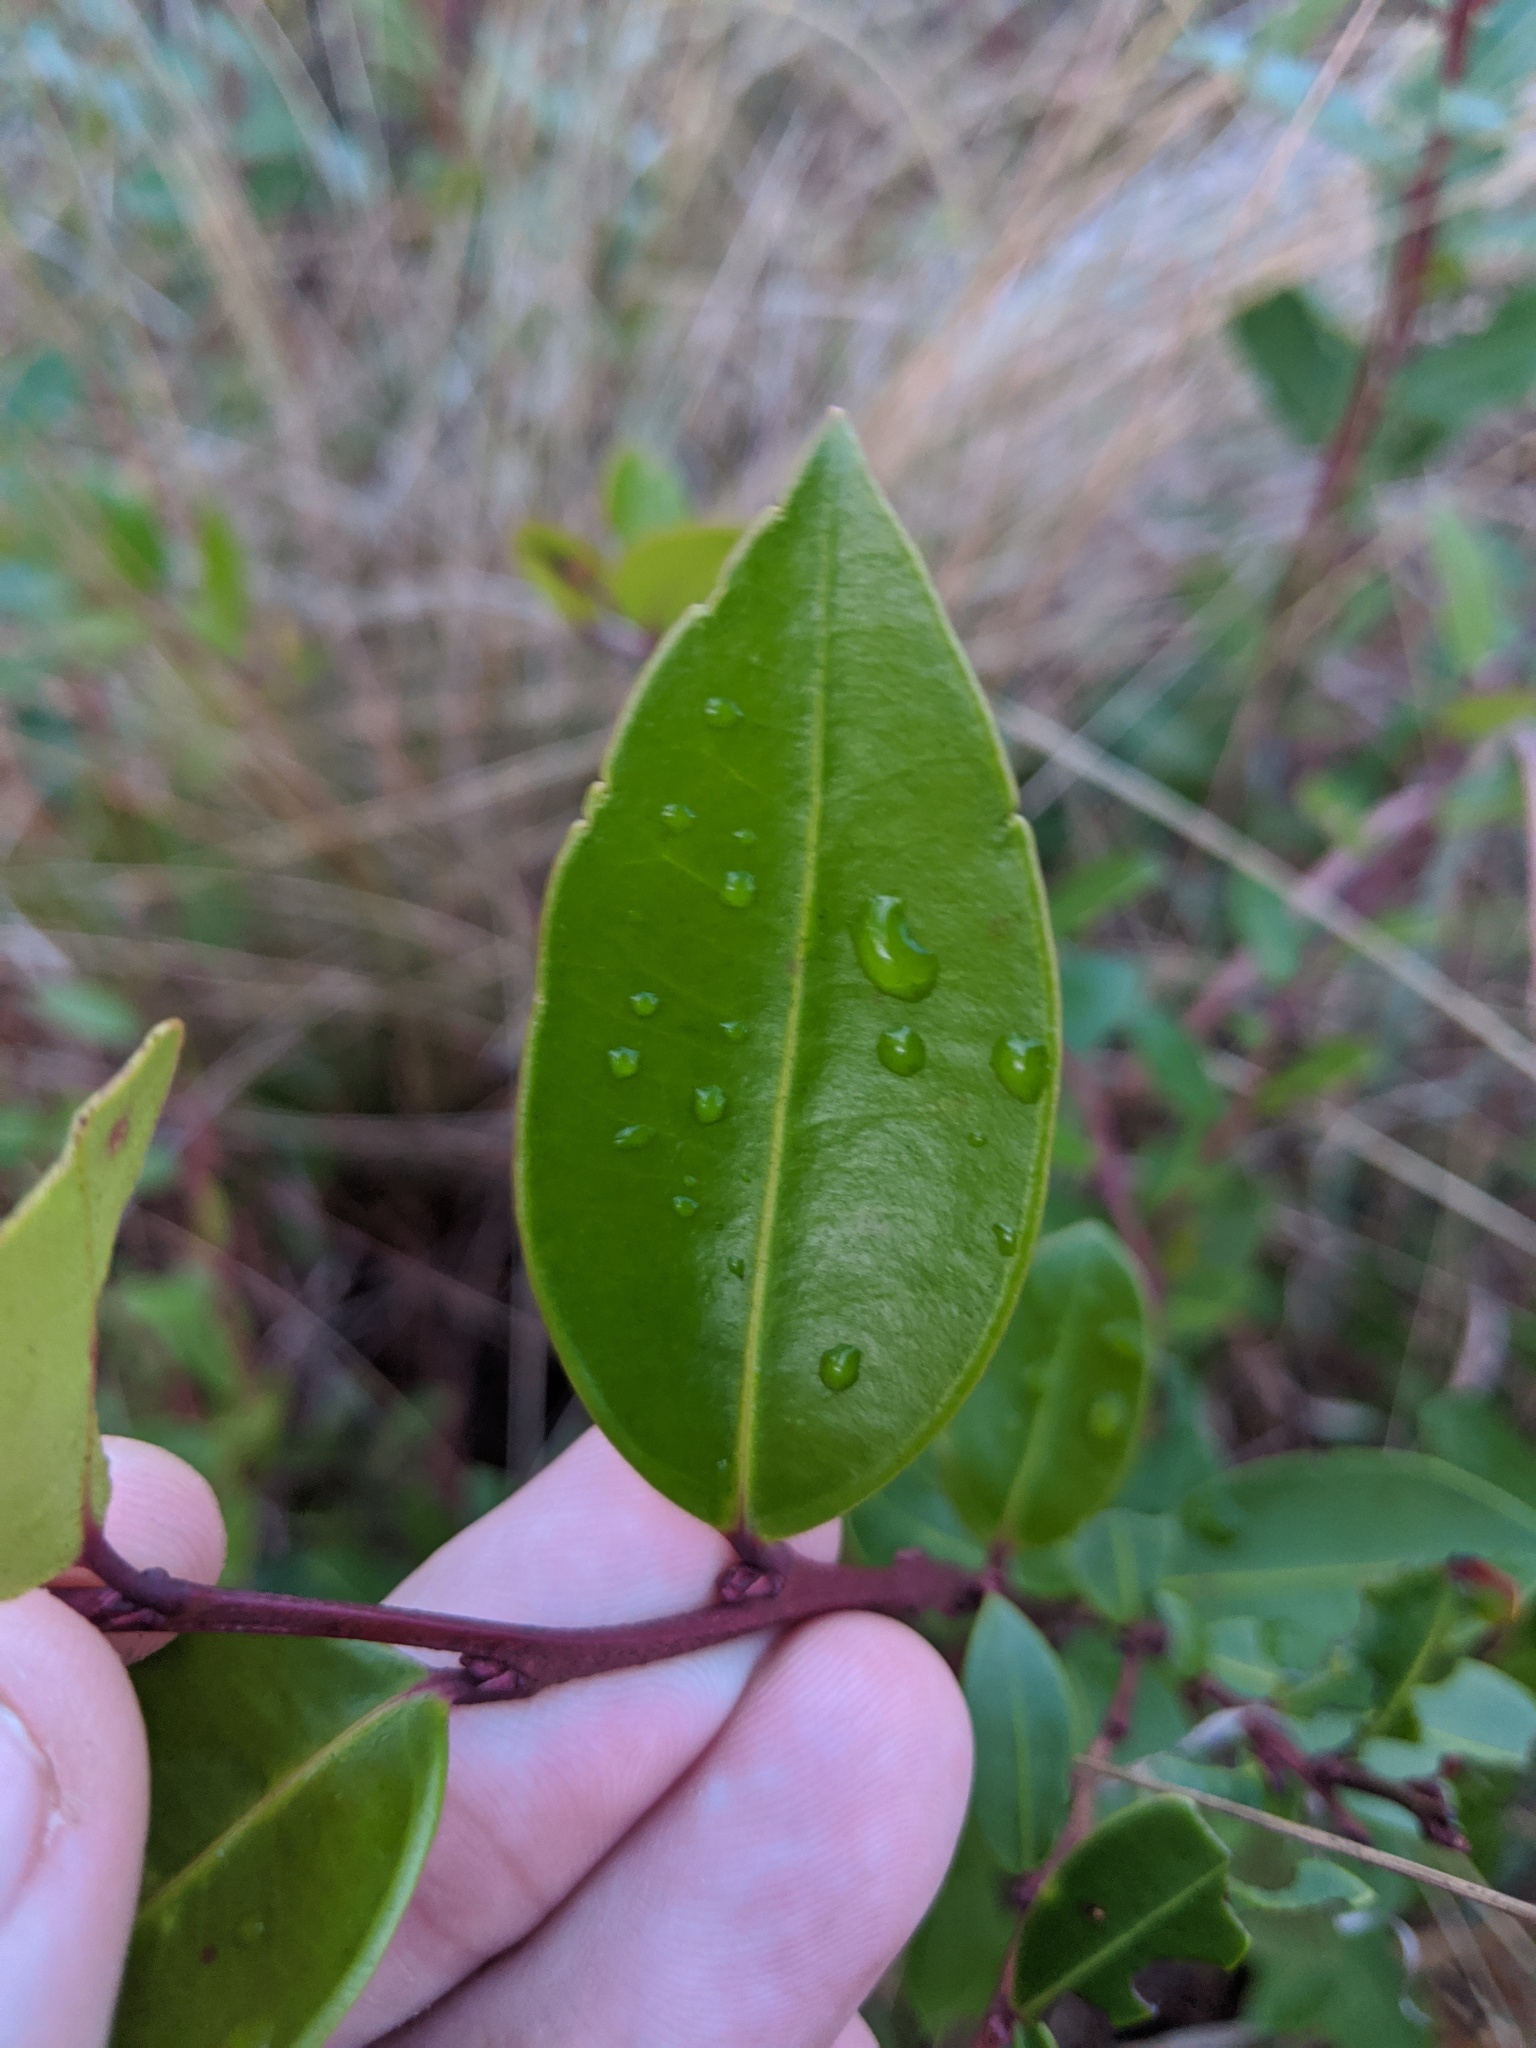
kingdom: Plantae
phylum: Tracheophyta
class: Magnoliopsida
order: Ericales
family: Ericaceae
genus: Lyonia
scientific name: Lyonia lucida
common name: Fetterbush
